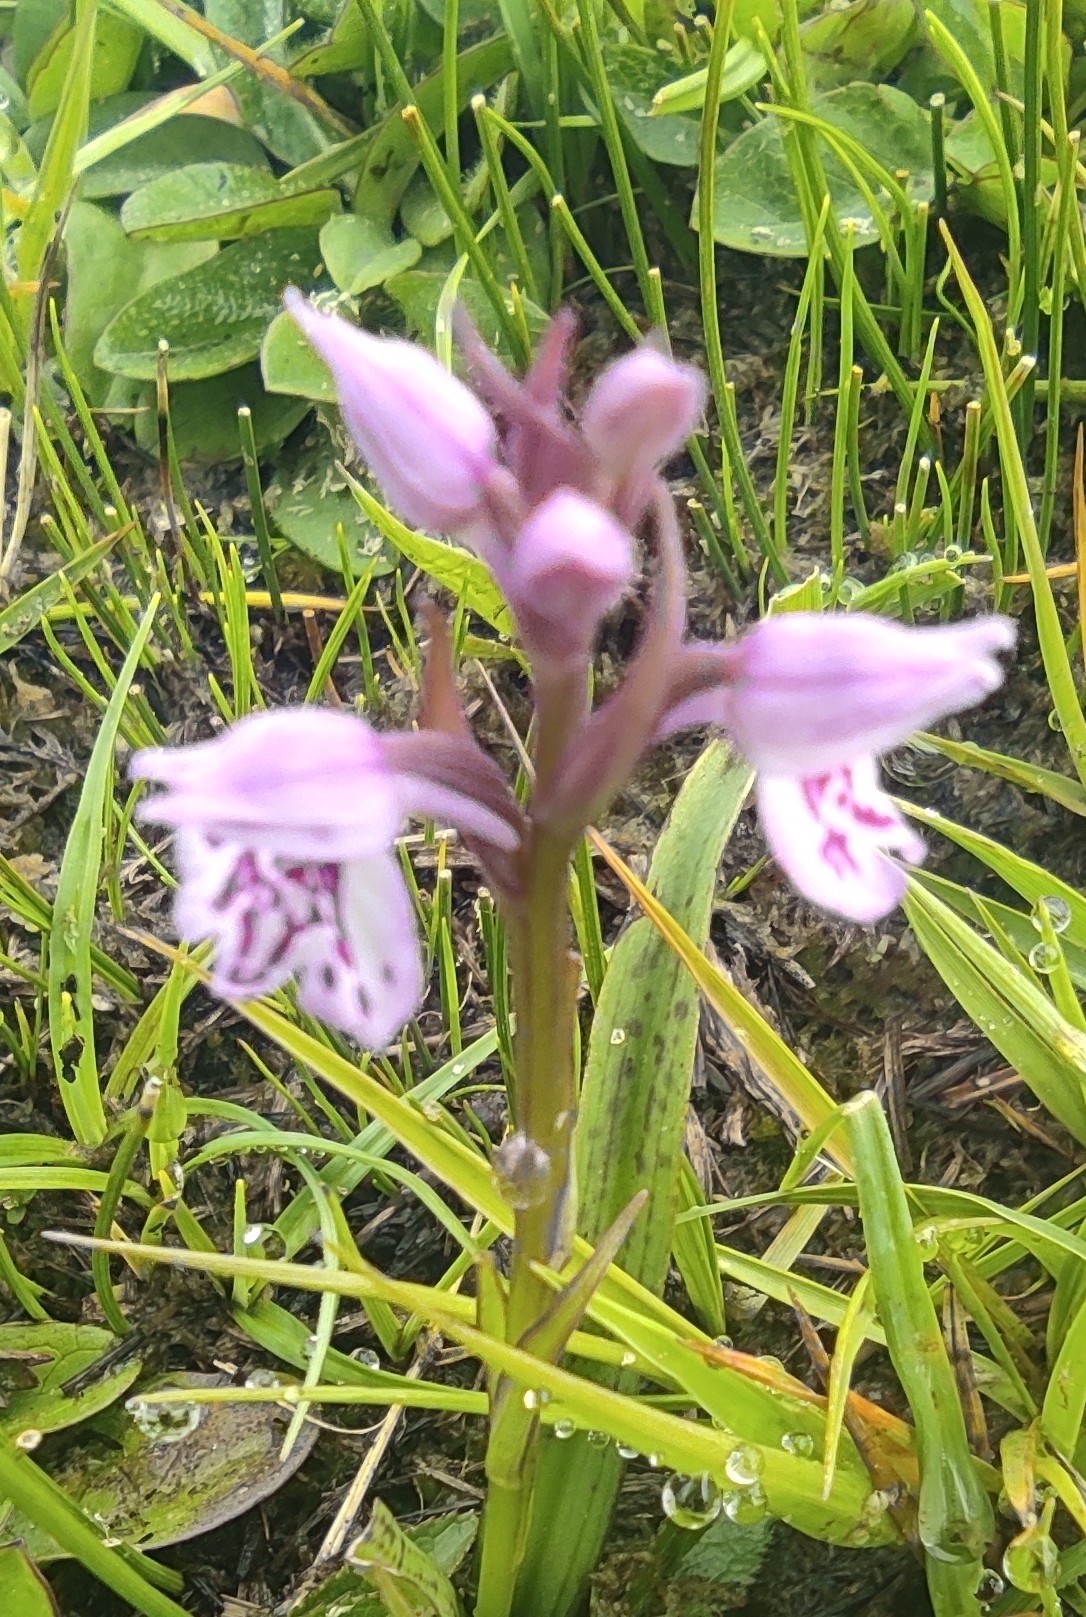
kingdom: Plantae
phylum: Tracheophyta
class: Liliopsida
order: Asparagales
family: Orchidaceae
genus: Dactylorhiza
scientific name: Dactylorhiza maculata
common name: Heath spotted-orchid
